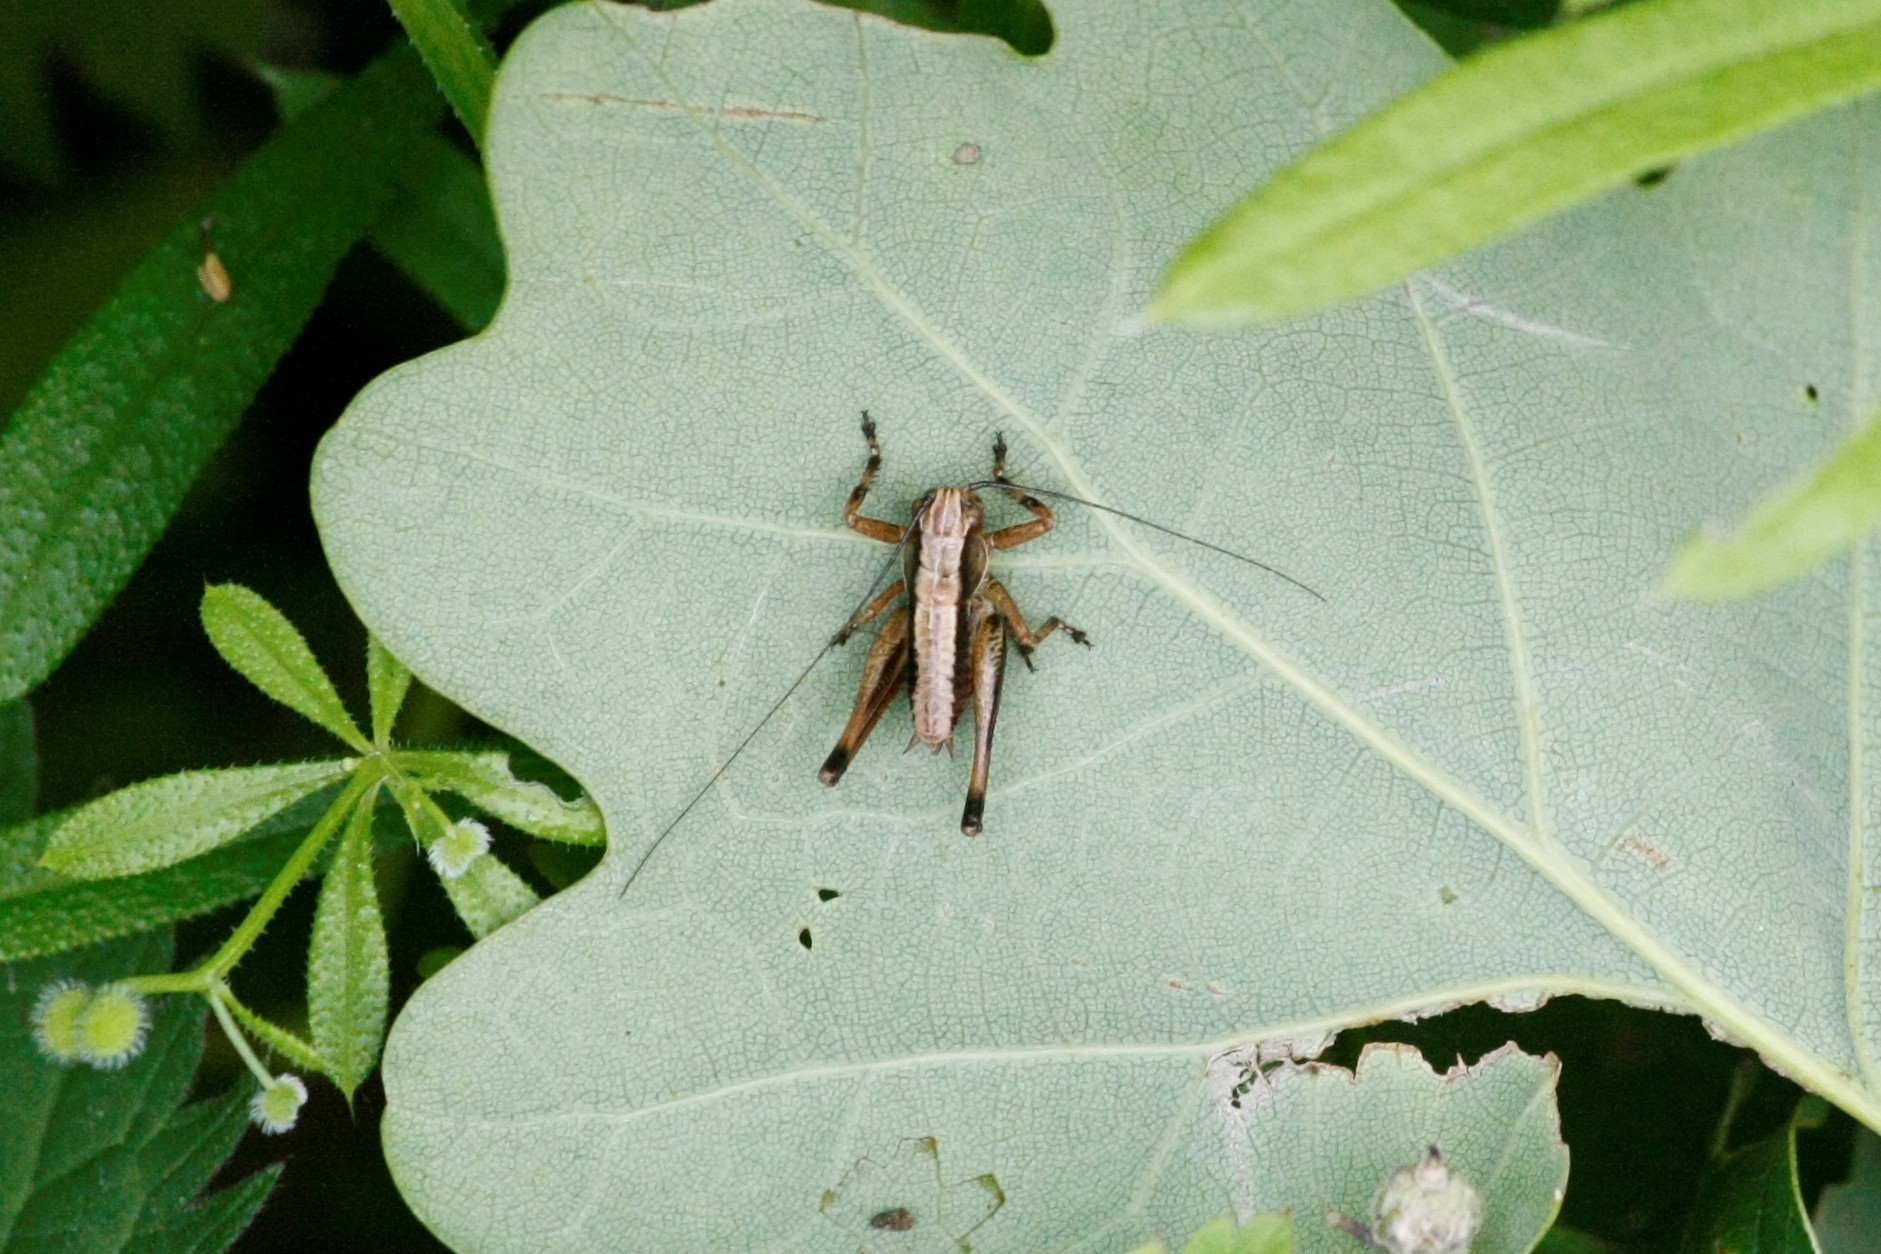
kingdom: Animalia
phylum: Arthropoda
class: Insecta
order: Orthoptera
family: Tettigoniidae
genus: Pholidoptera
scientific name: Pholidoptera griseoaptera
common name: Dark bush-cricket
